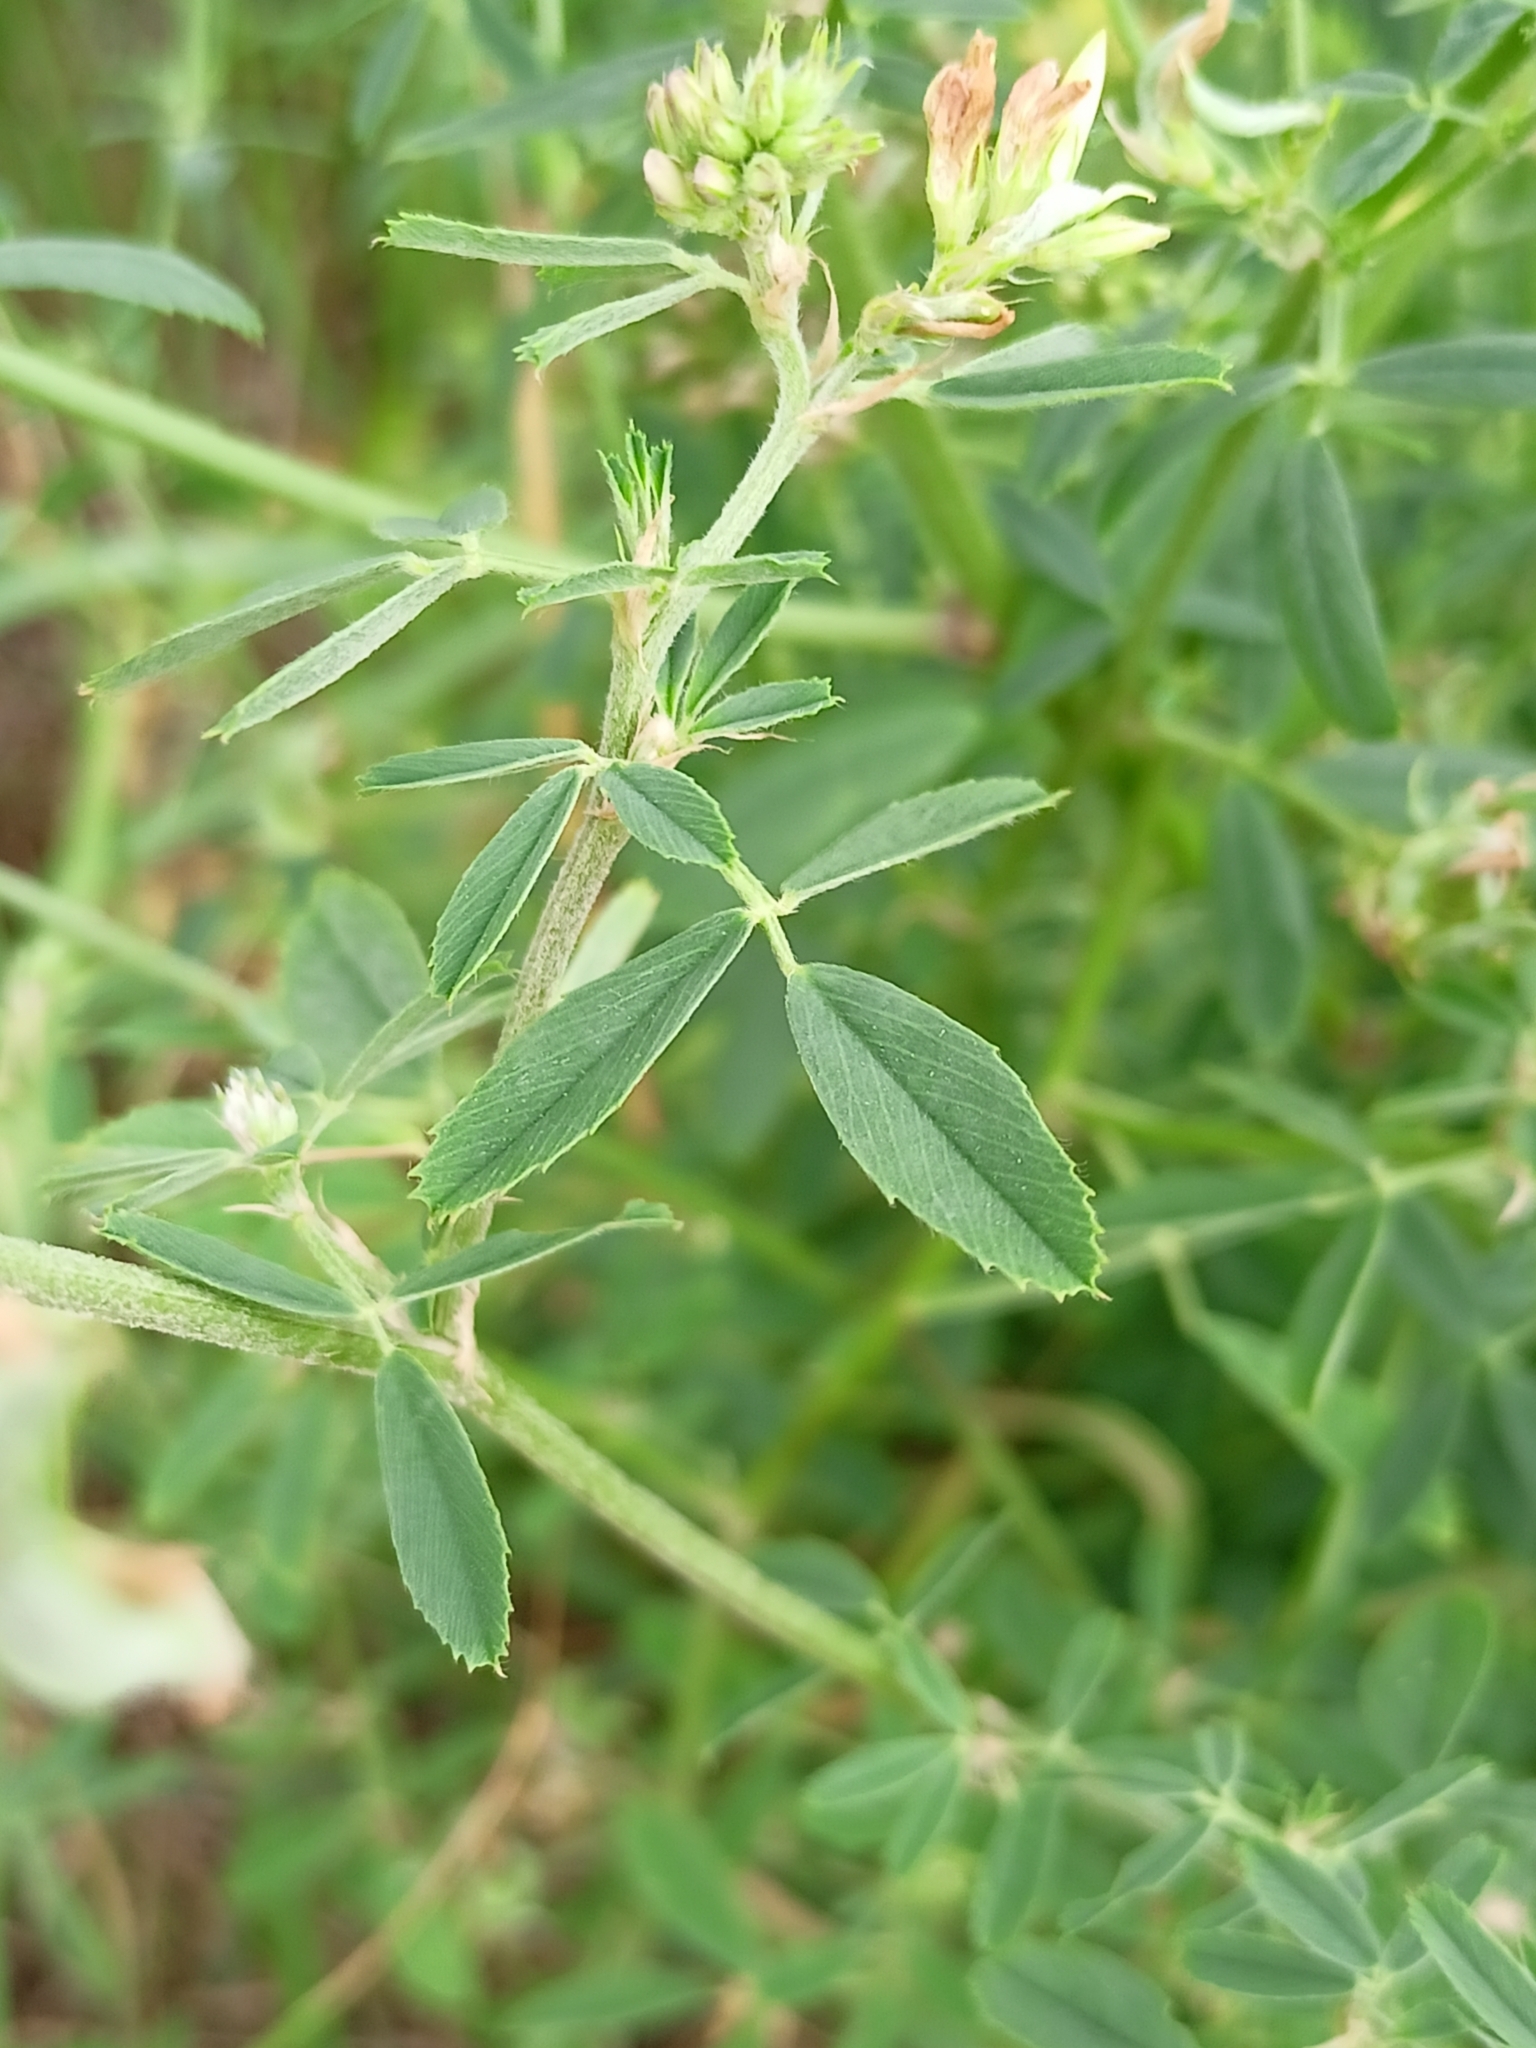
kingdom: Plantae
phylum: Tracheophyta
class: Magnoliopsida
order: Fabales
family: Fabaceae
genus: Medicago
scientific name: Medicago falcata
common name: Sickle medick
